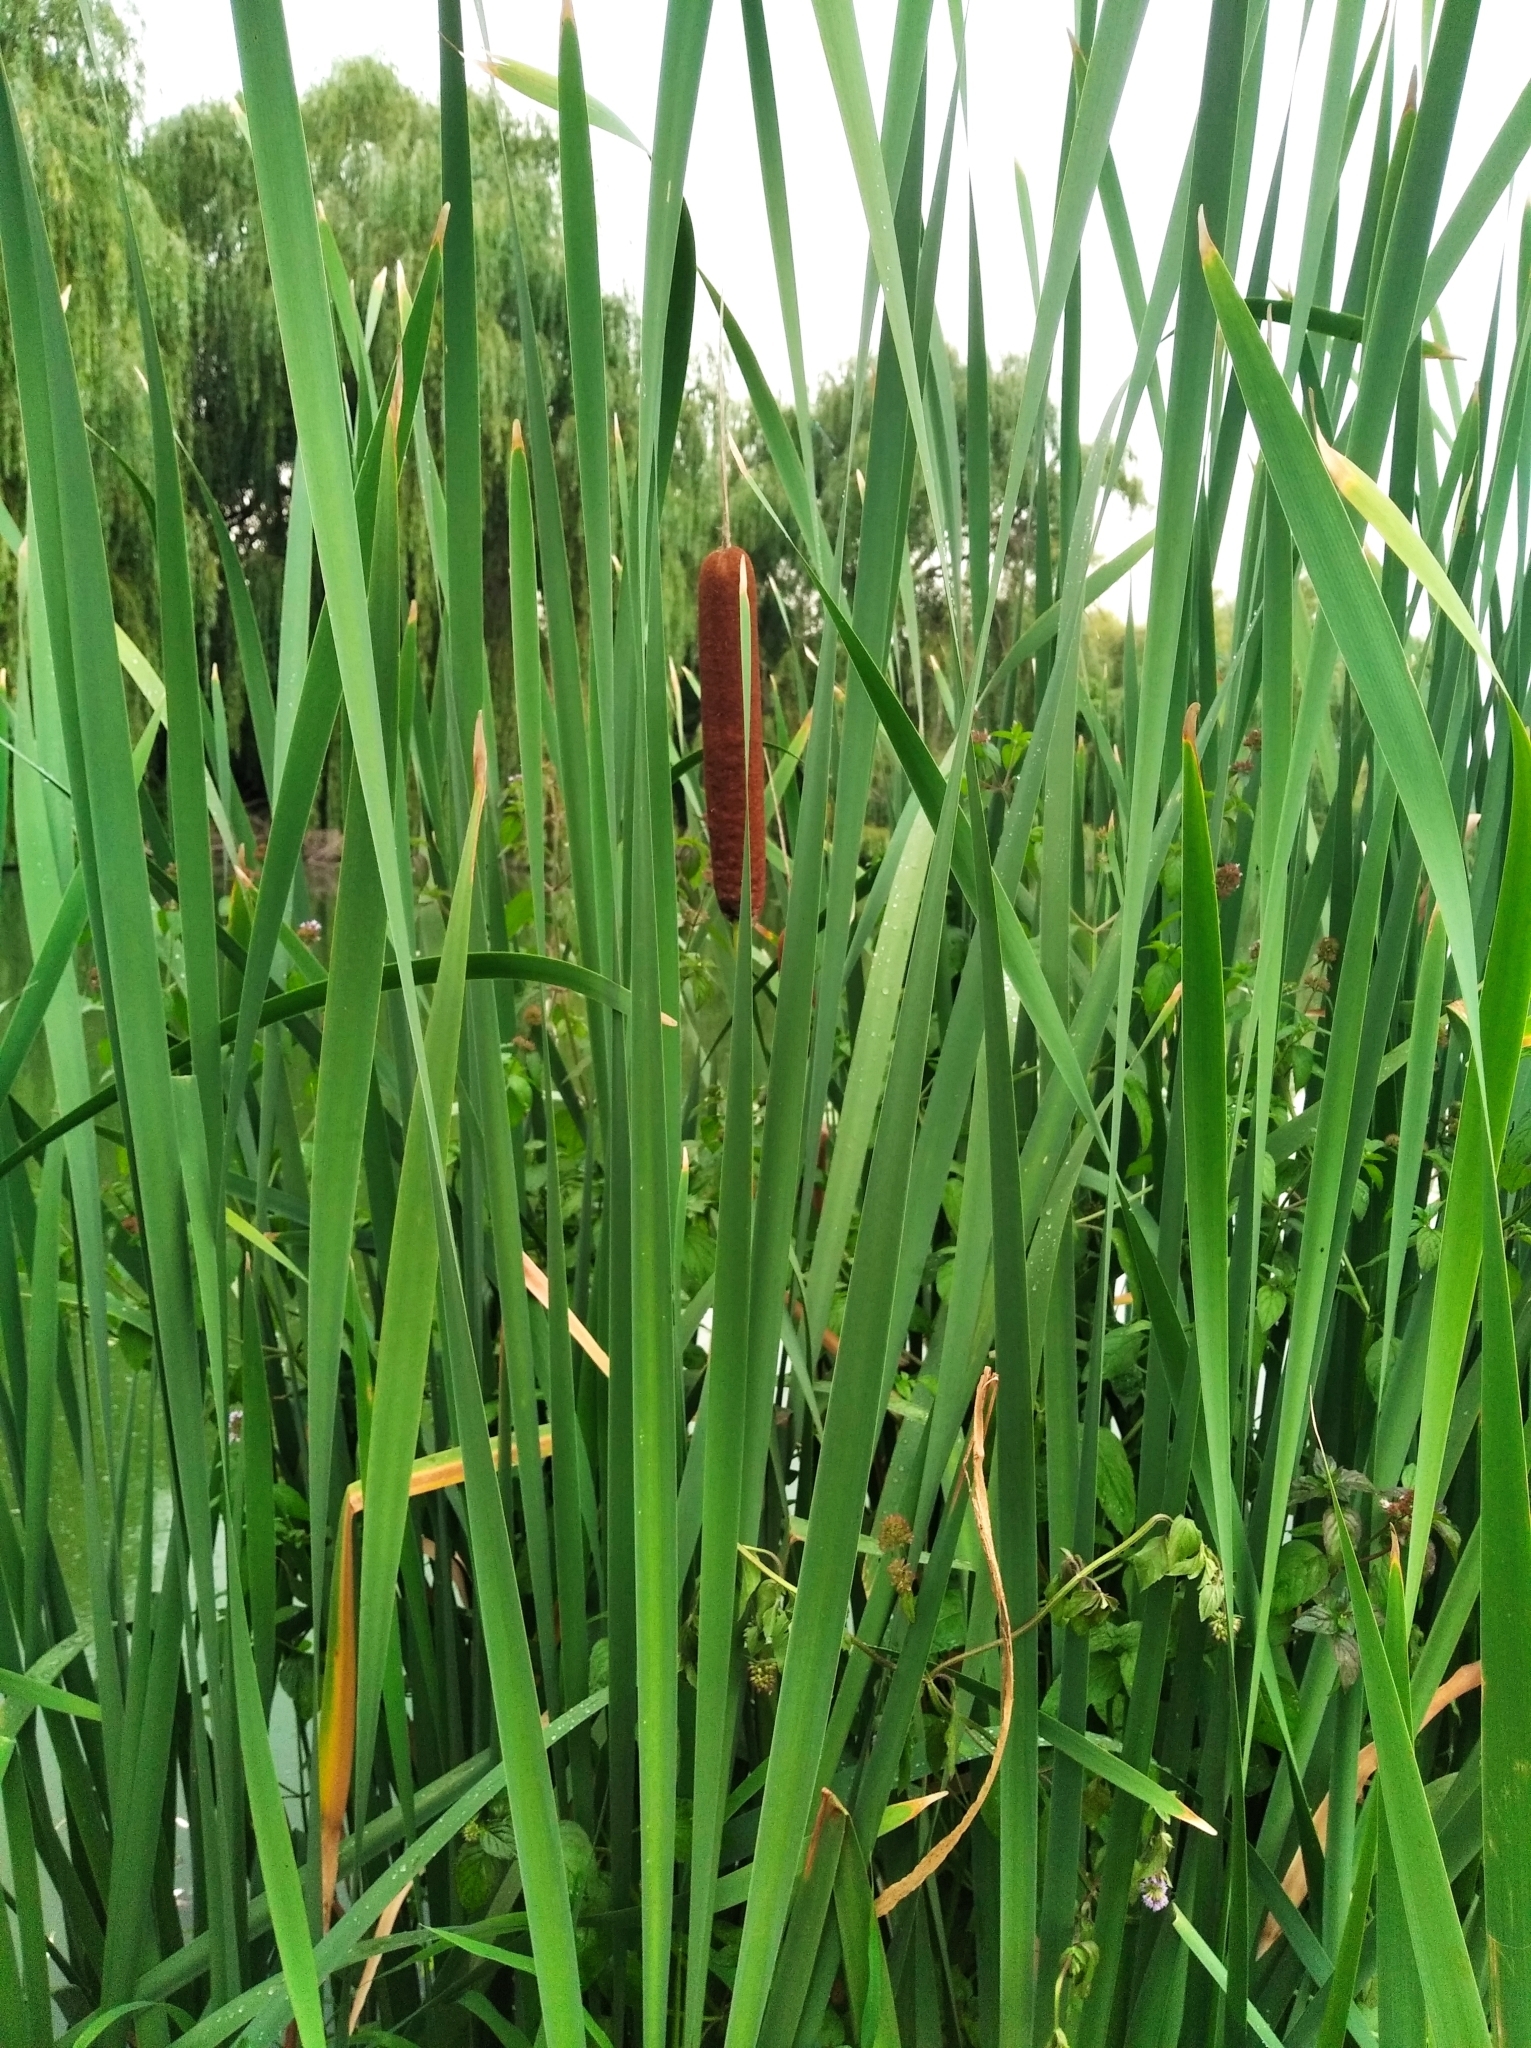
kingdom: Plantae
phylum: Tracheophyta
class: Liliopsida
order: Poales
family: Typhaceae
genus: Typha
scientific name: Typha latifolia
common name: Broadleaf cattail
